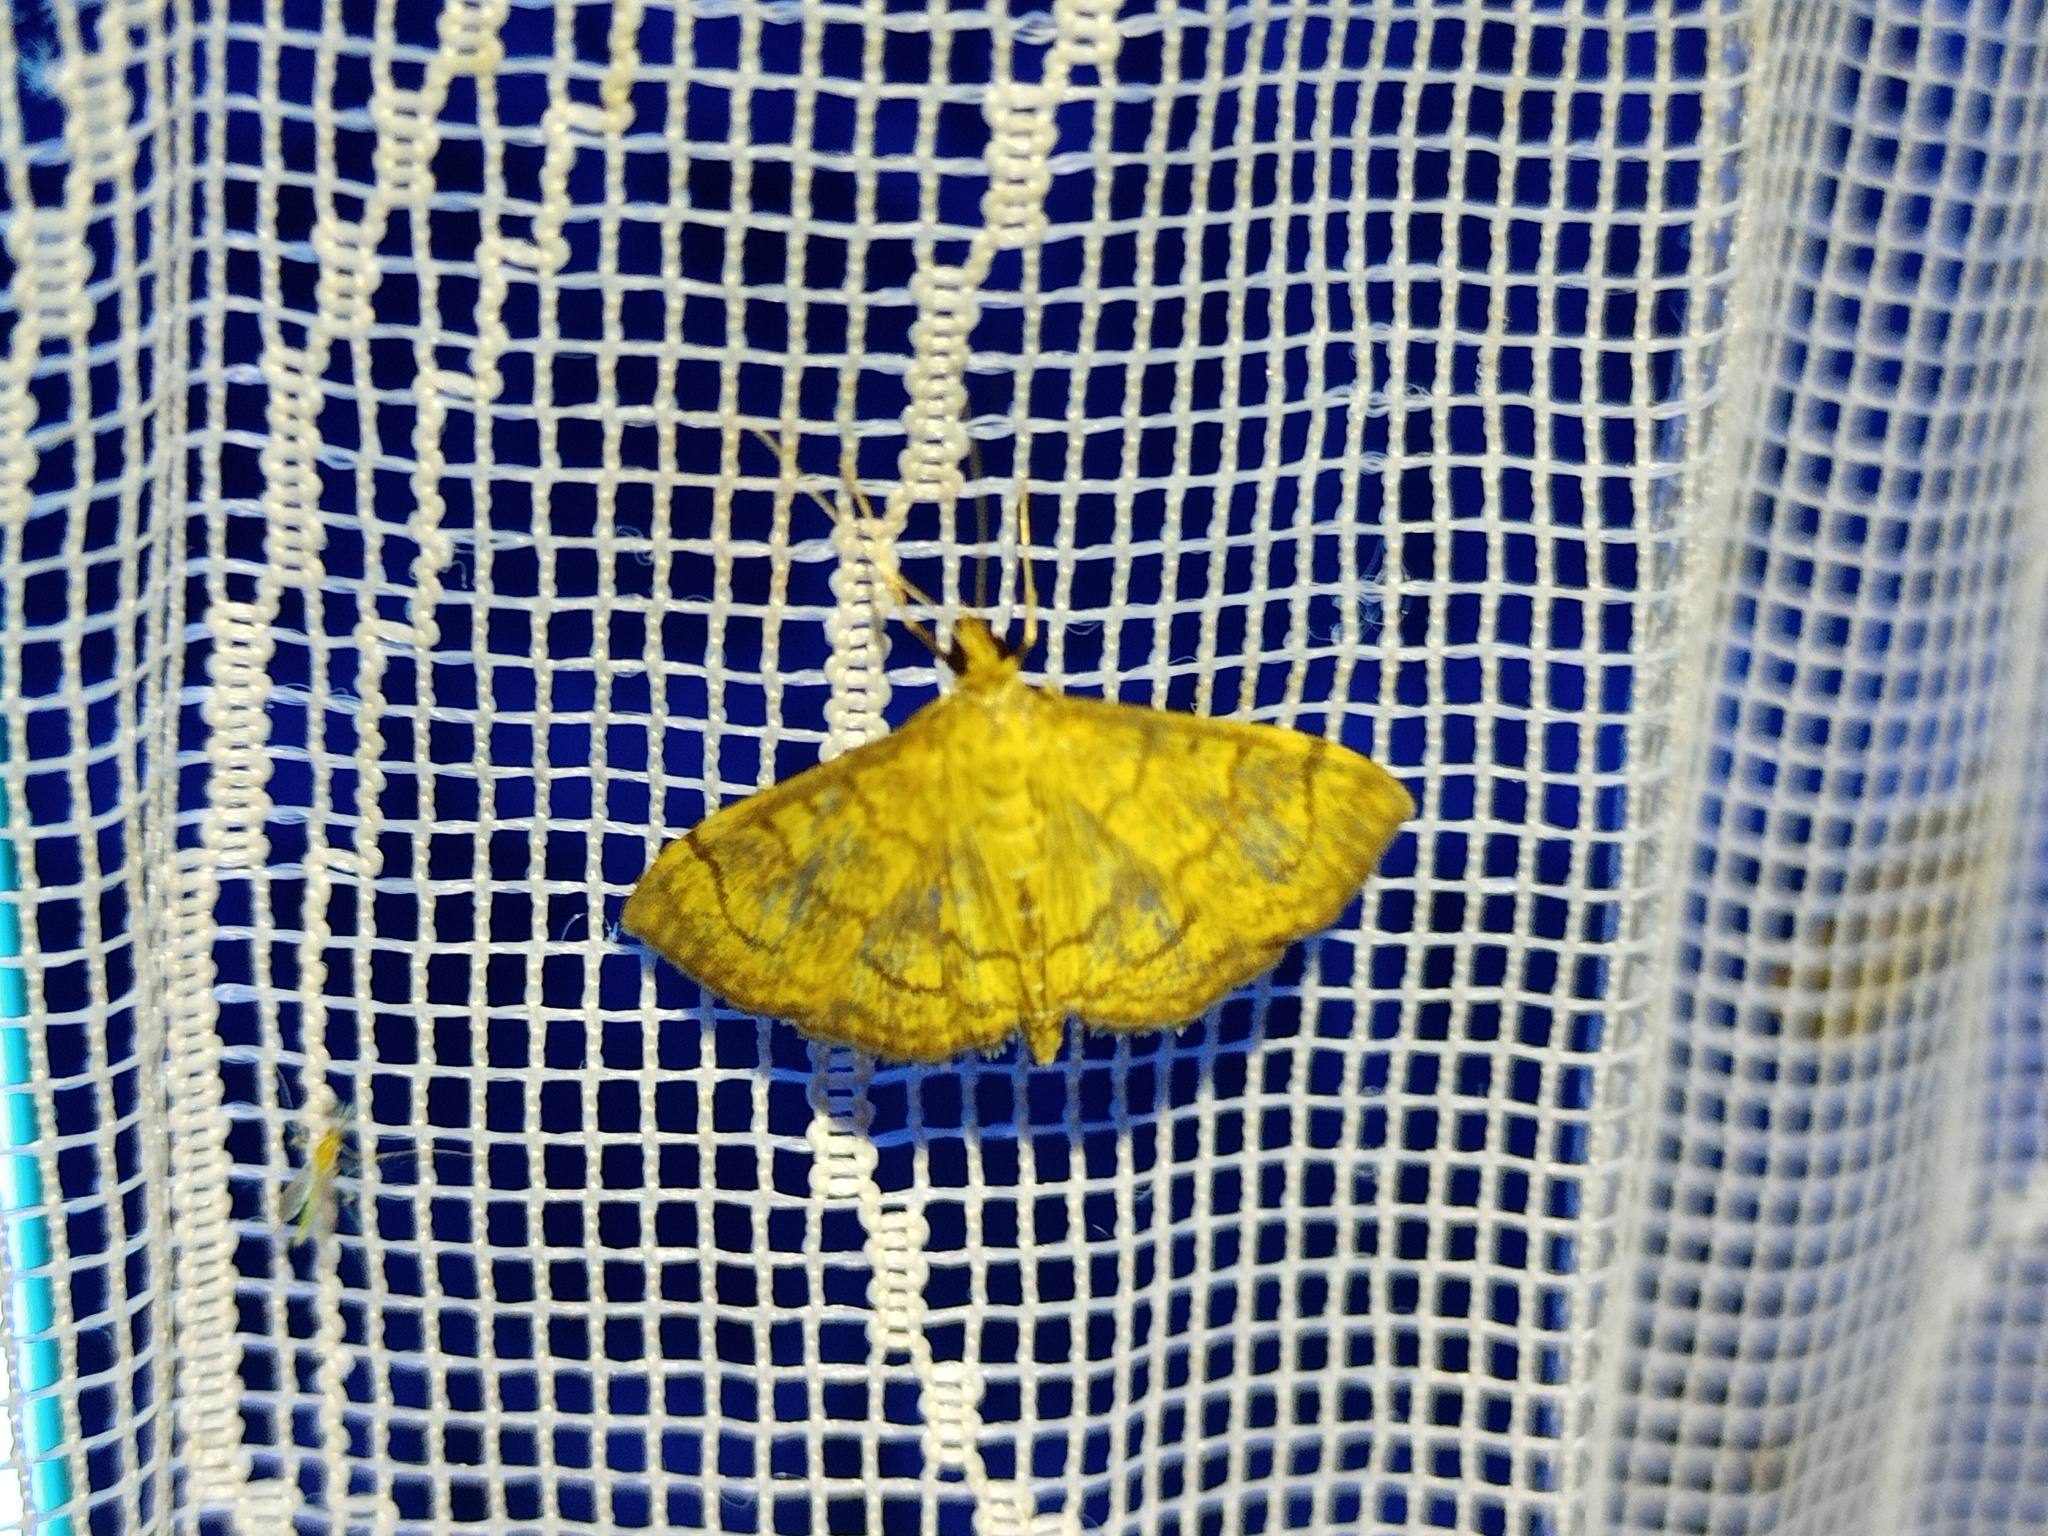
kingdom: Animalia
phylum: Arthropoda
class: Insecta
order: Lepidoptera
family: Crambidae
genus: Anania
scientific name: Anania verbascalis
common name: Golden pearl
